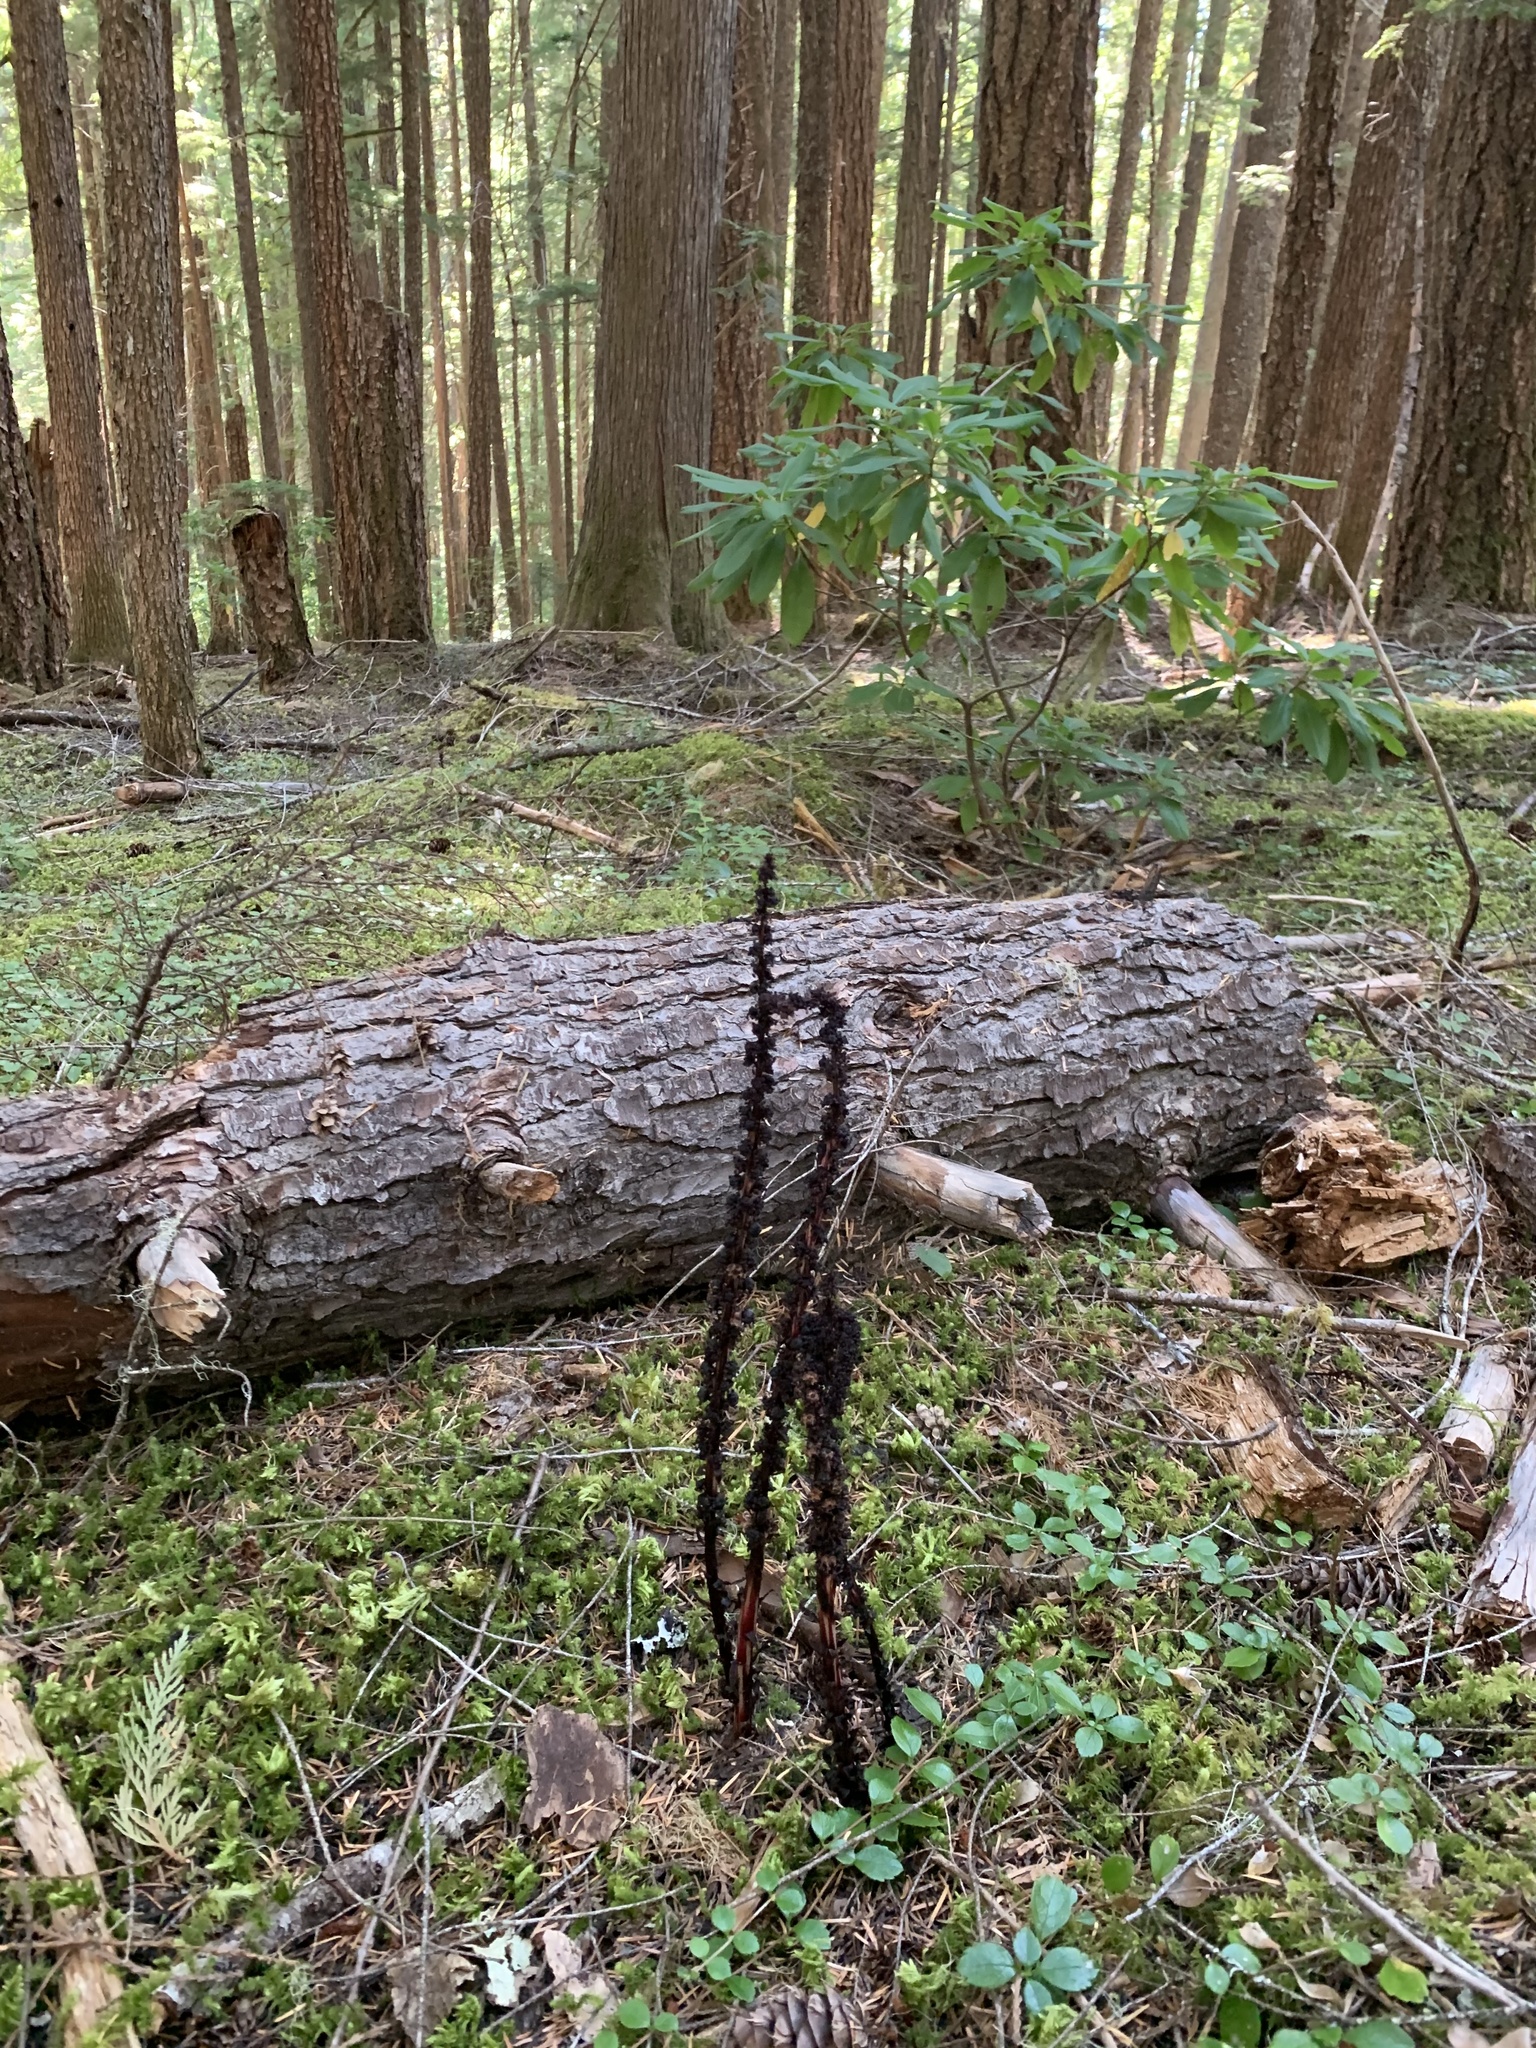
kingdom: Plantae
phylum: Tracheophyta
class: Magnoliopsida
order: Ericales
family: Ericaceae
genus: Allotropa
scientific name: Allotropa virgata
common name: Candy-striped allotropa
